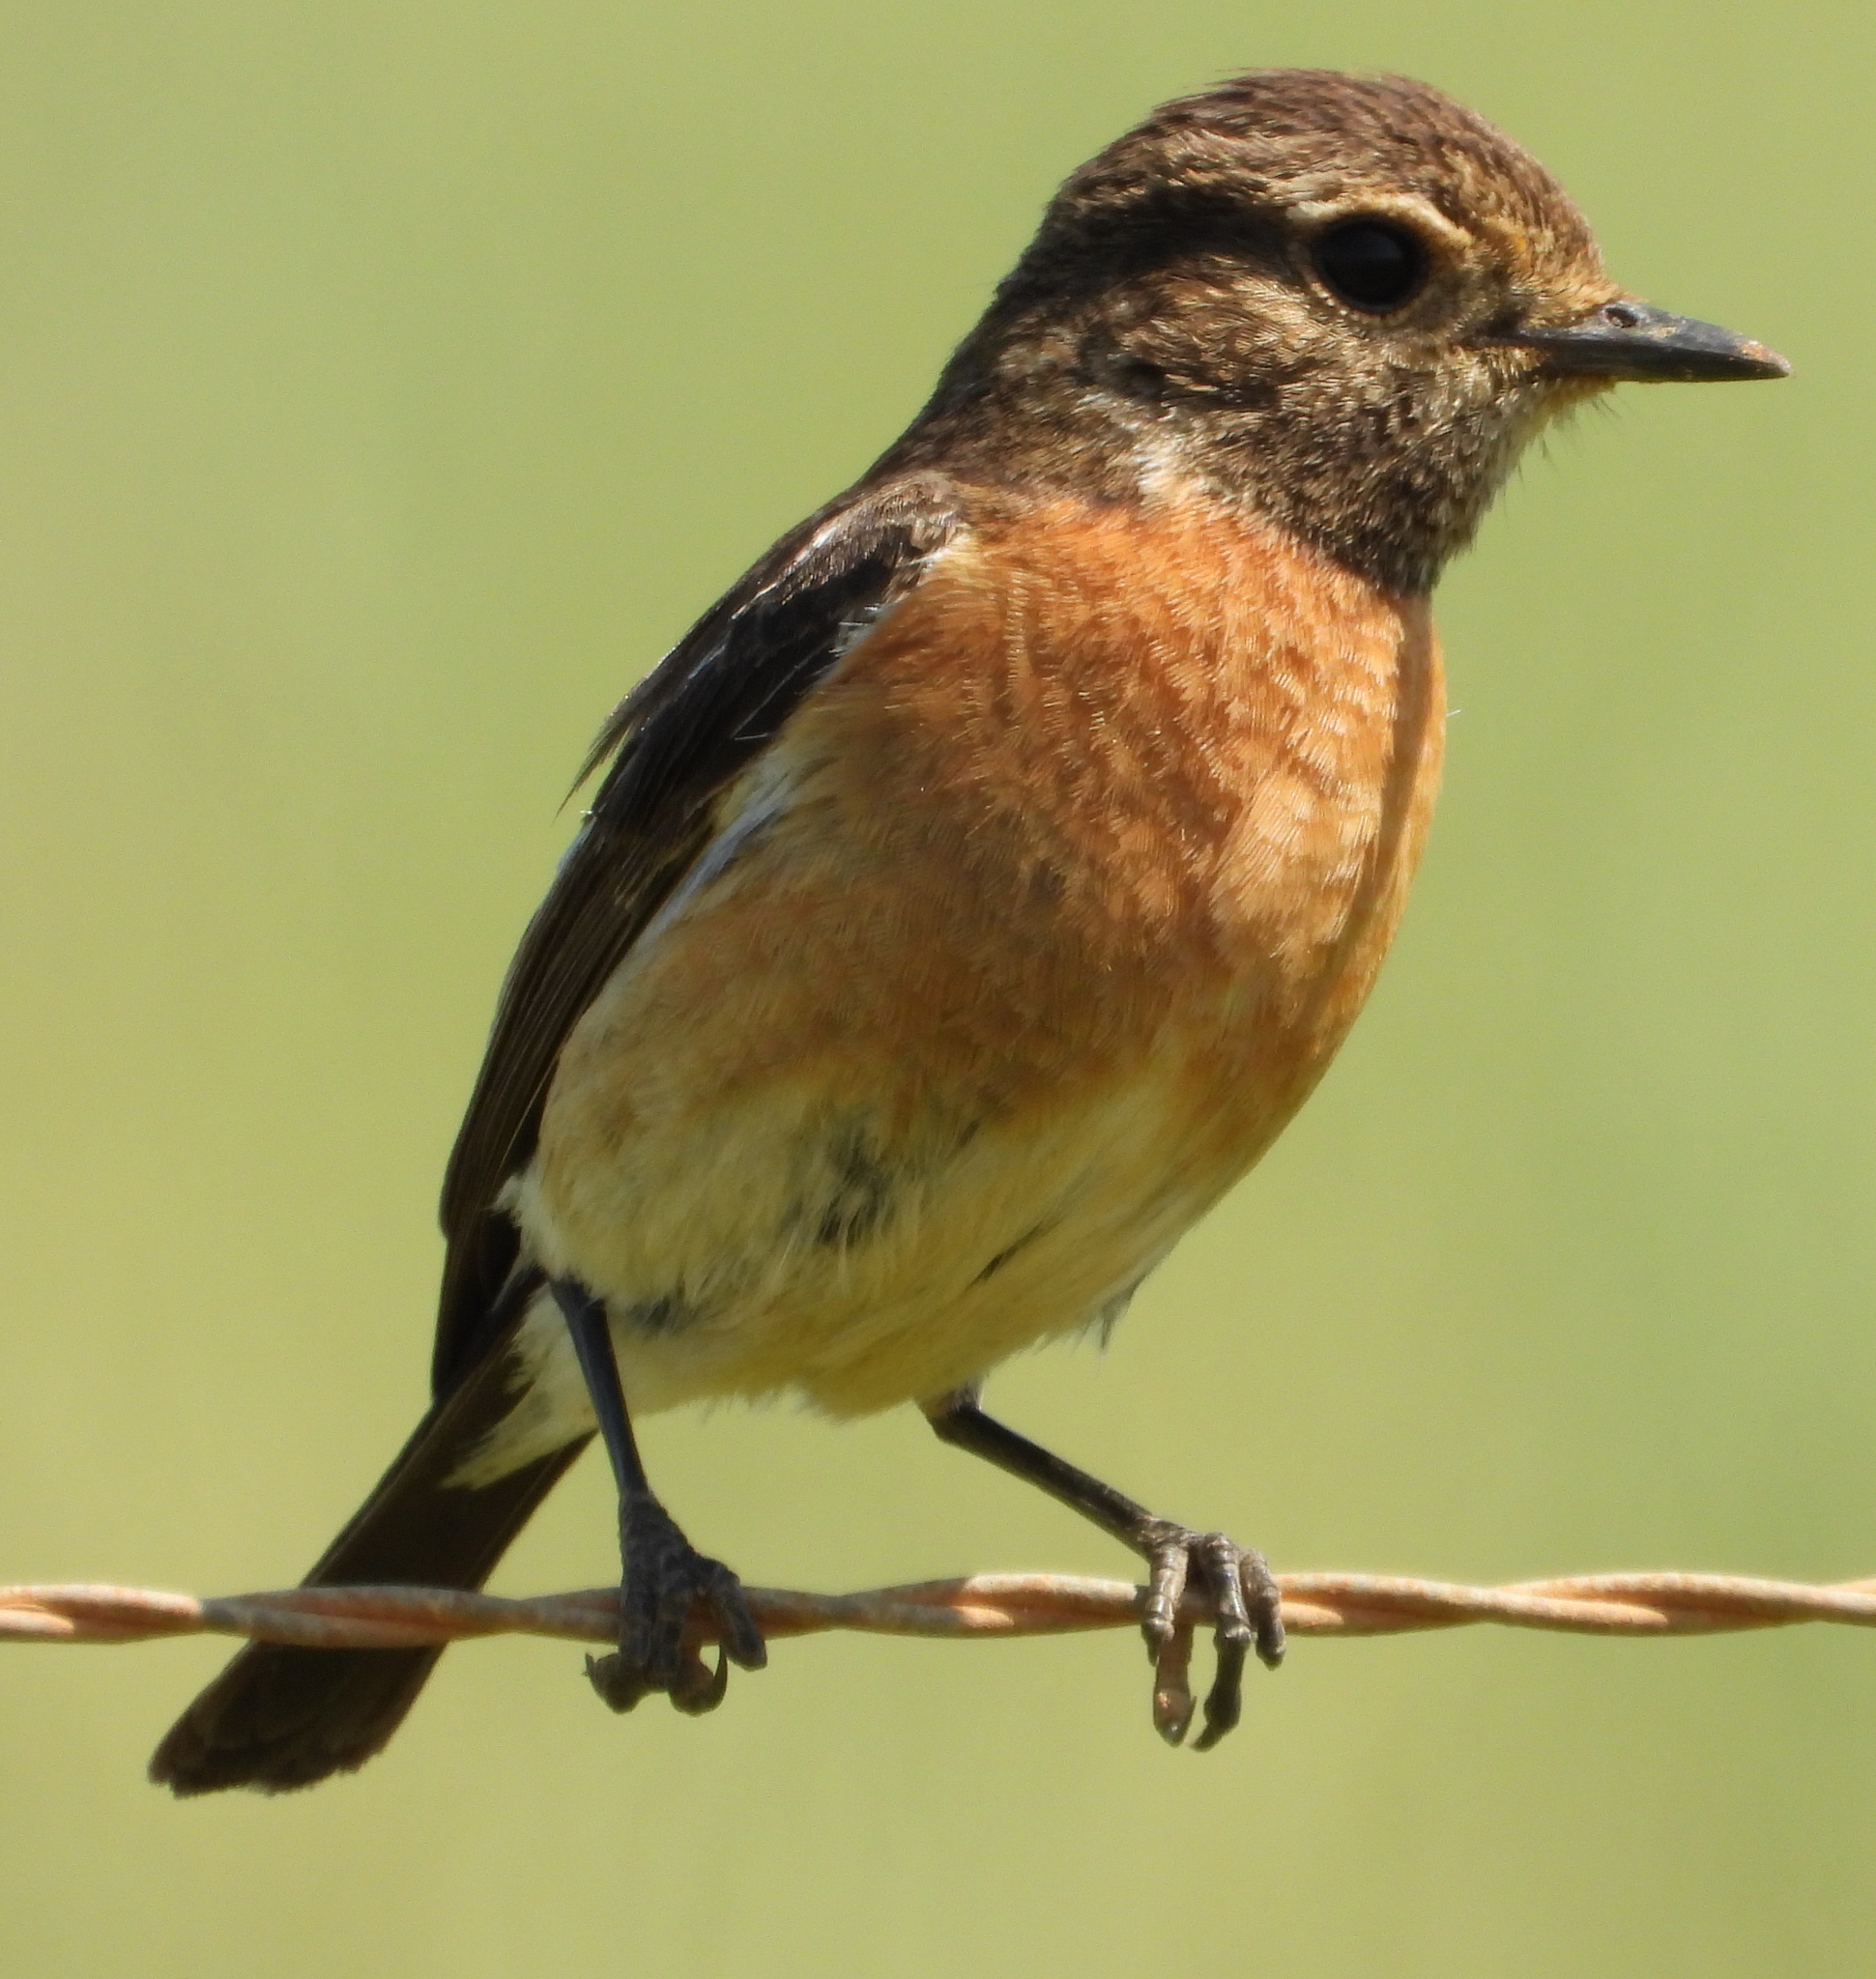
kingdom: Animalia
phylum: Chordata
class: Aves
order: Passeriformes
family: Muscicapidae
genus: Saxicola
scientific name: Saxicola torquatus
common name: African stonechat
